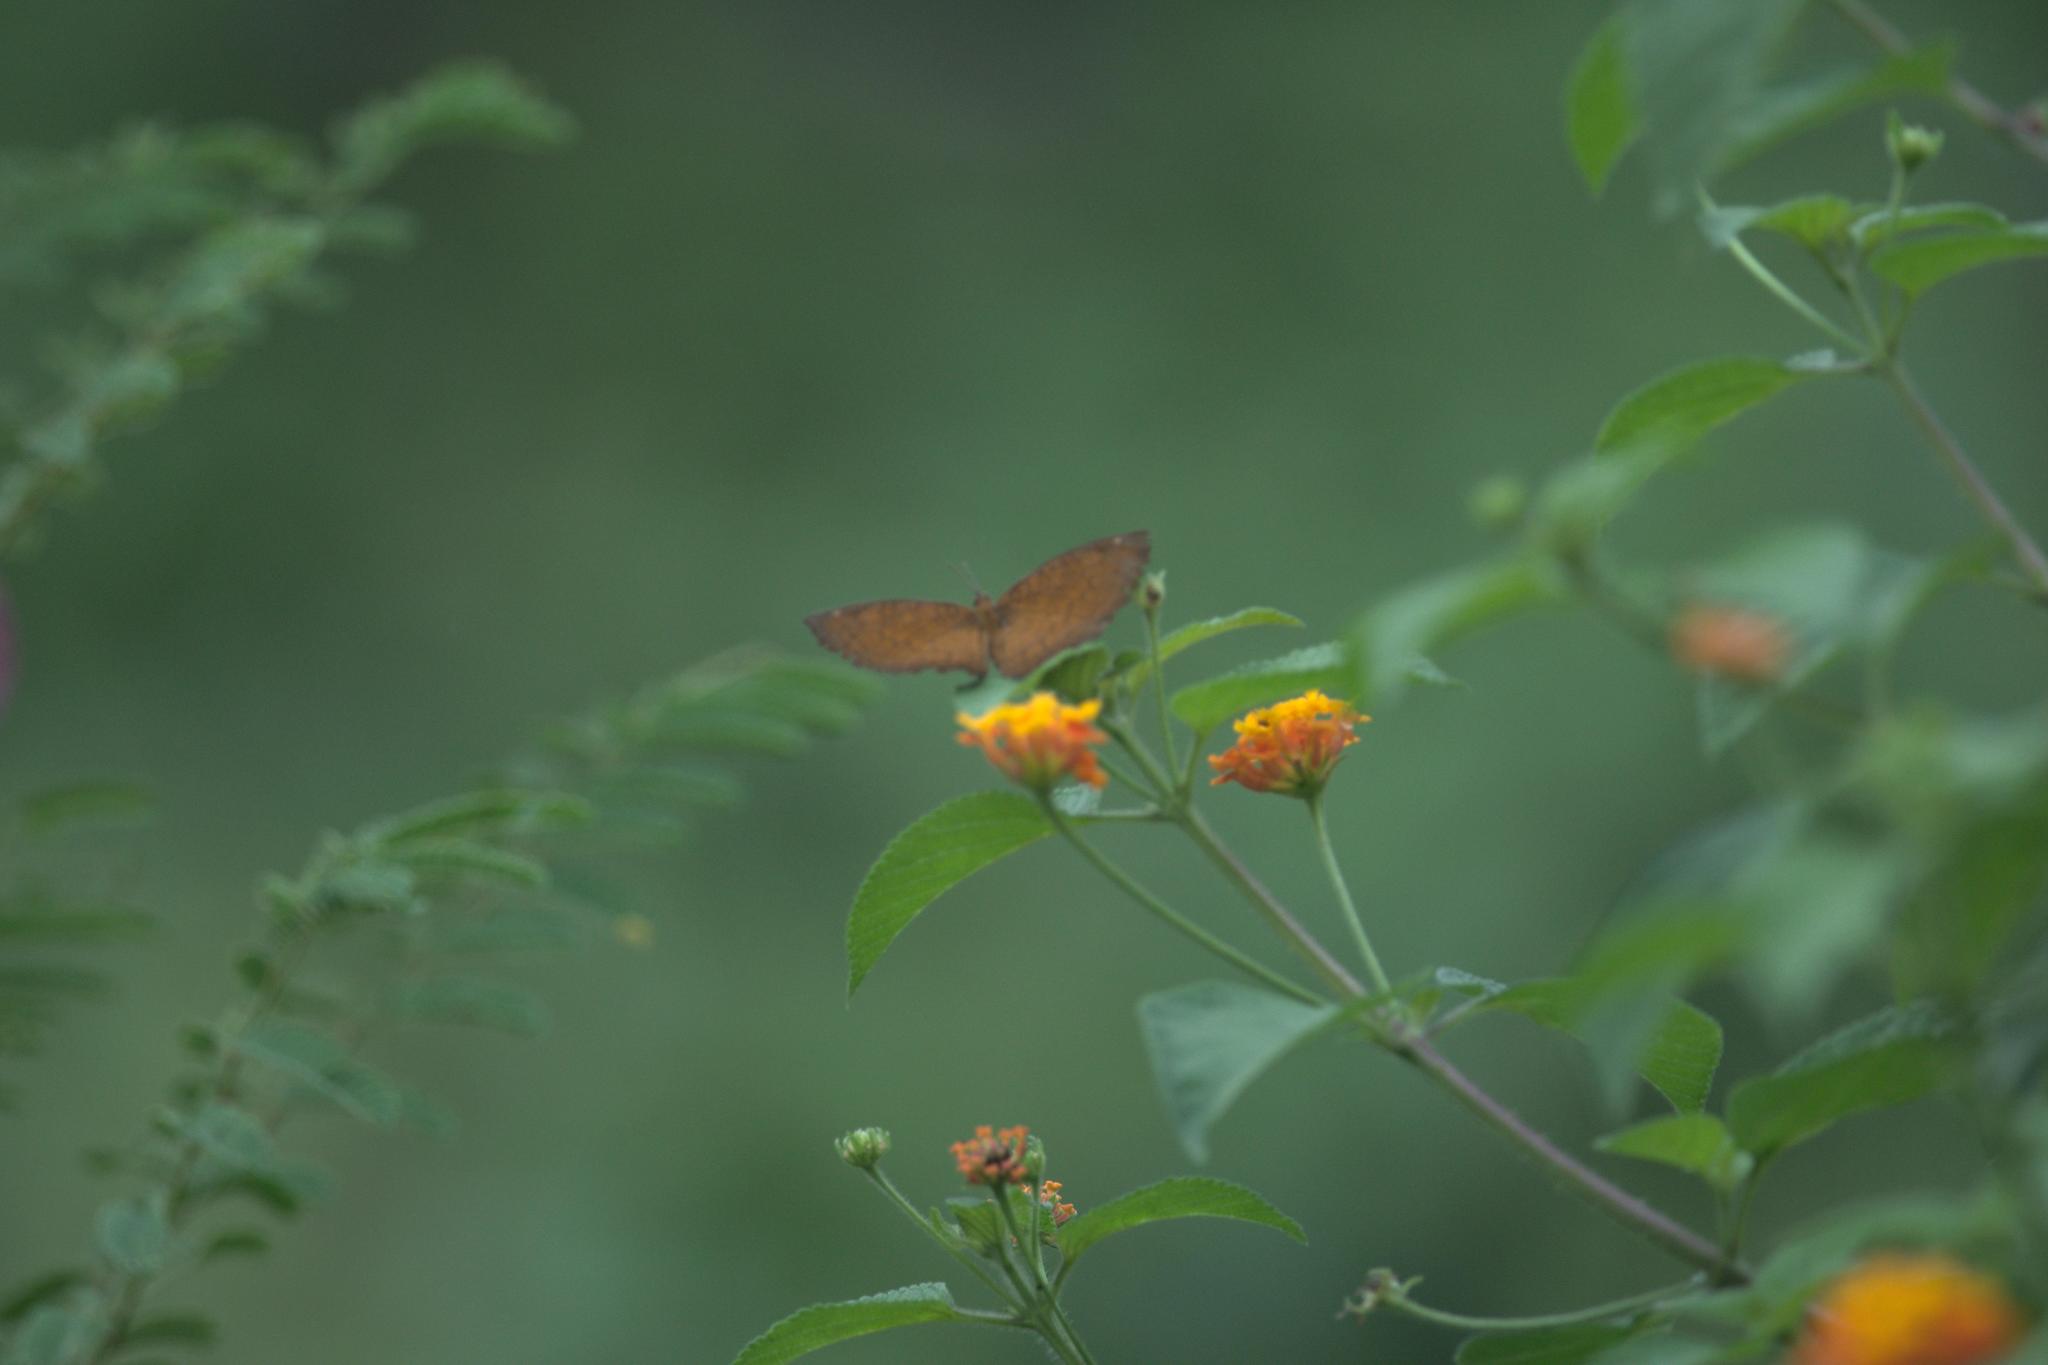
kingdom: Animalia
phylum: Arthropoda
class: Insecta
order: Lepidoptera
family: Nymphalidae
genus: Ariadne
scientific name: Ariadne merione
